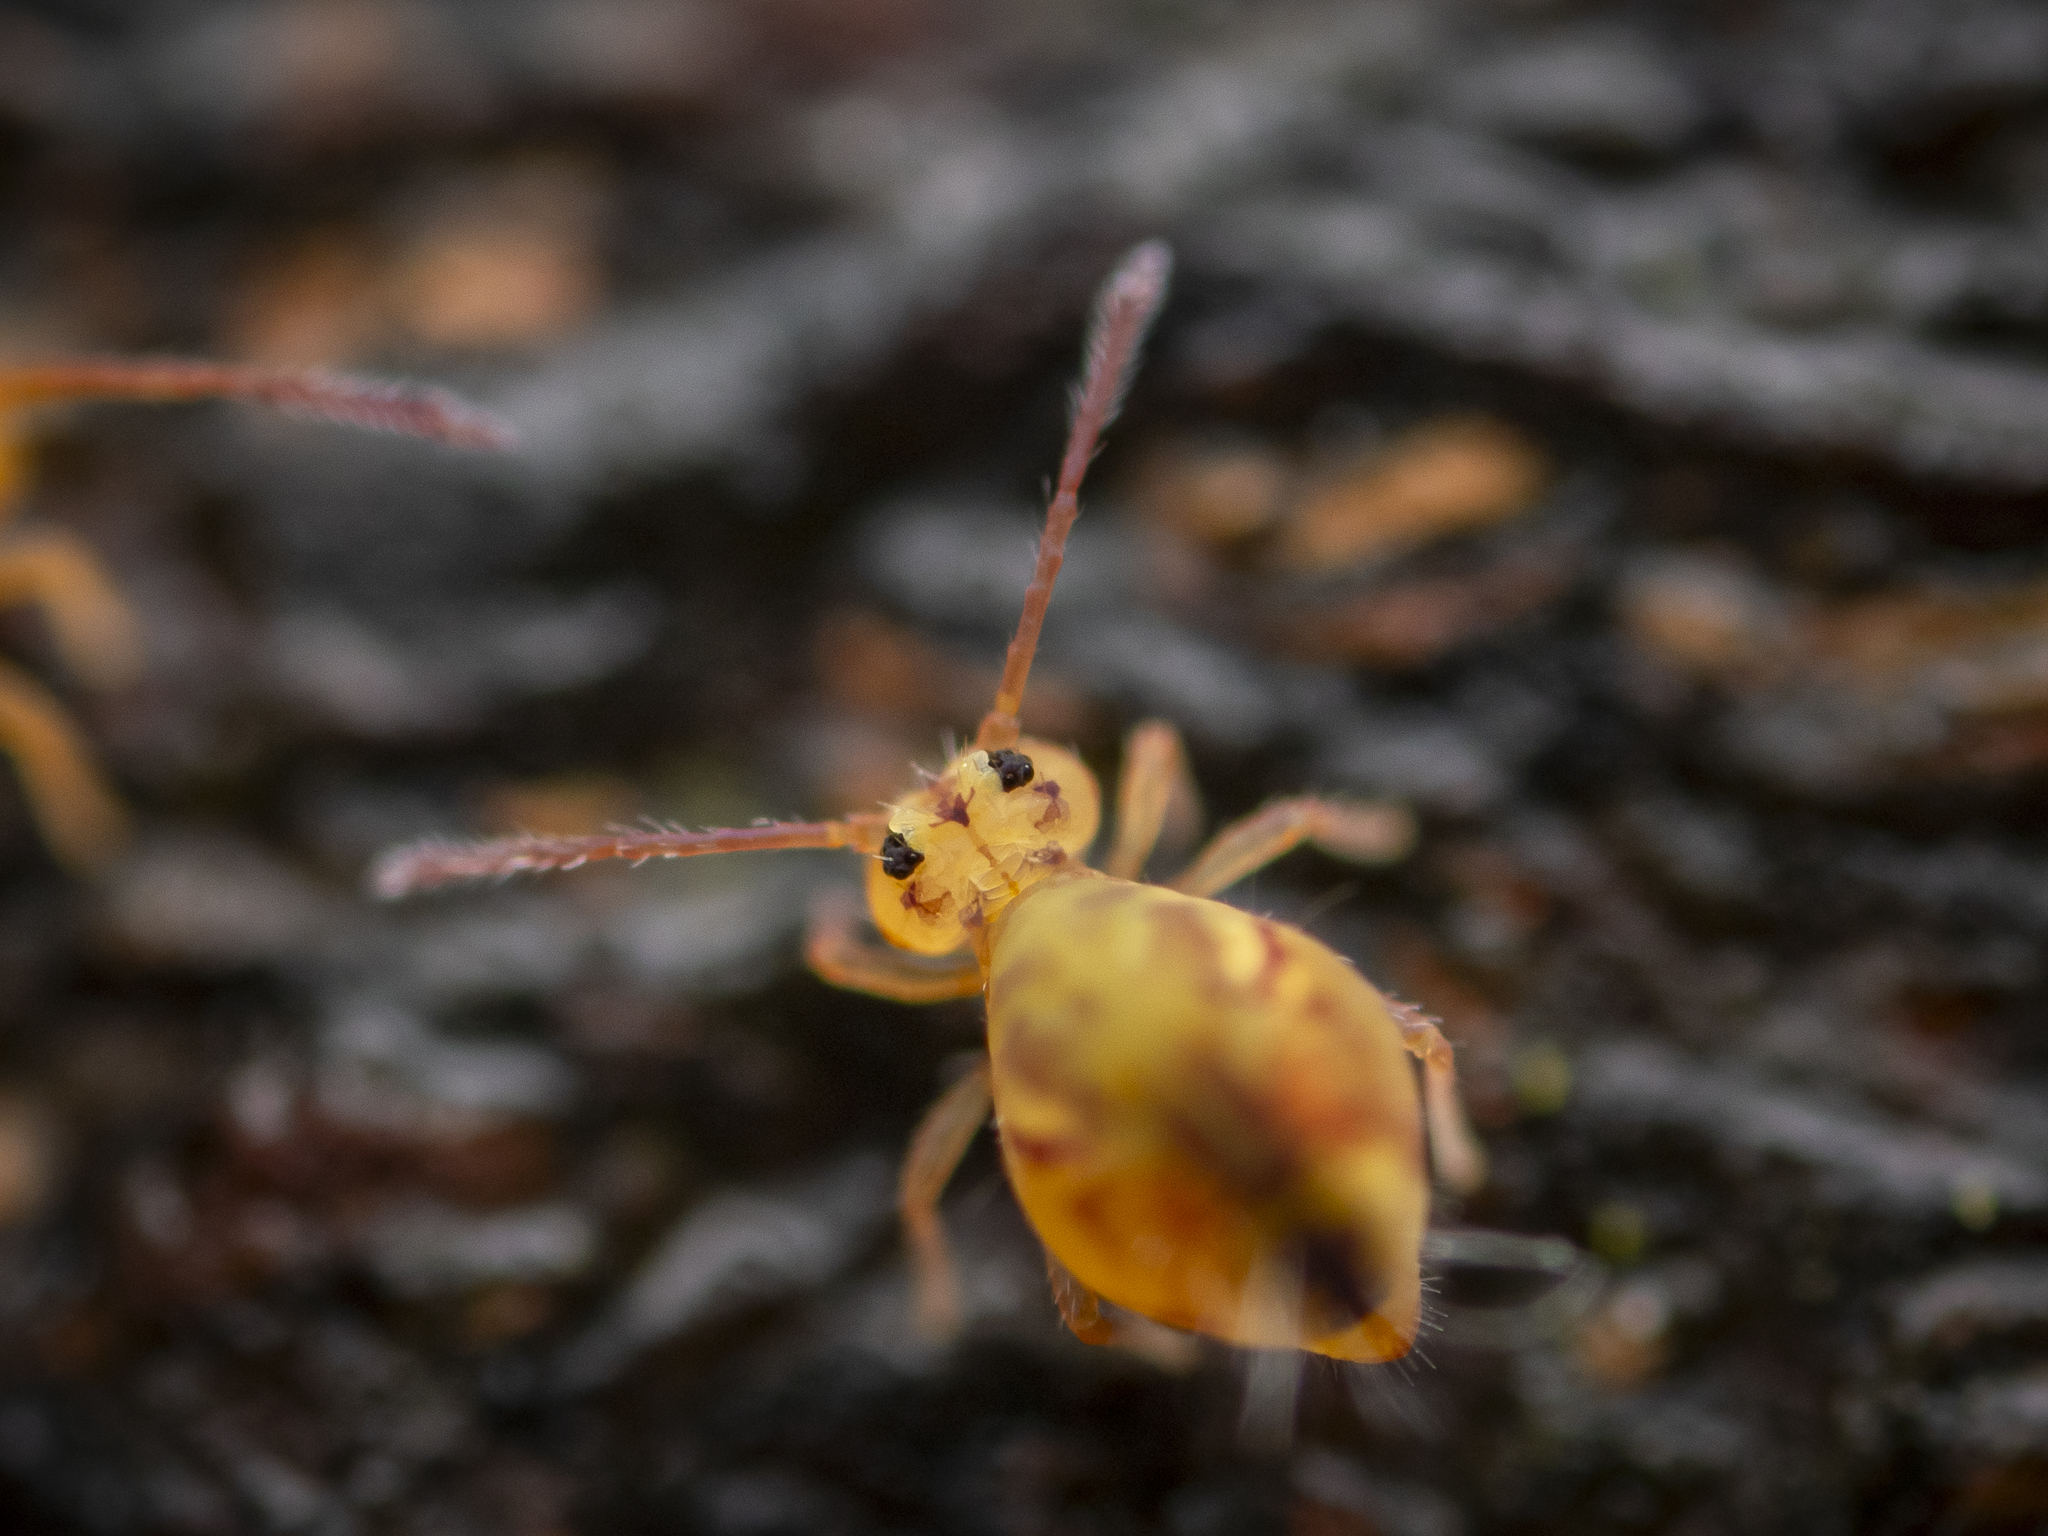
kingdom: Animalia
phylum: Arthropoda
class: Collembola
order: Symphypleona
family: Dicyrtomidae
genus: Dicyrtomina
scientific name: Dicyrtomina ornata
